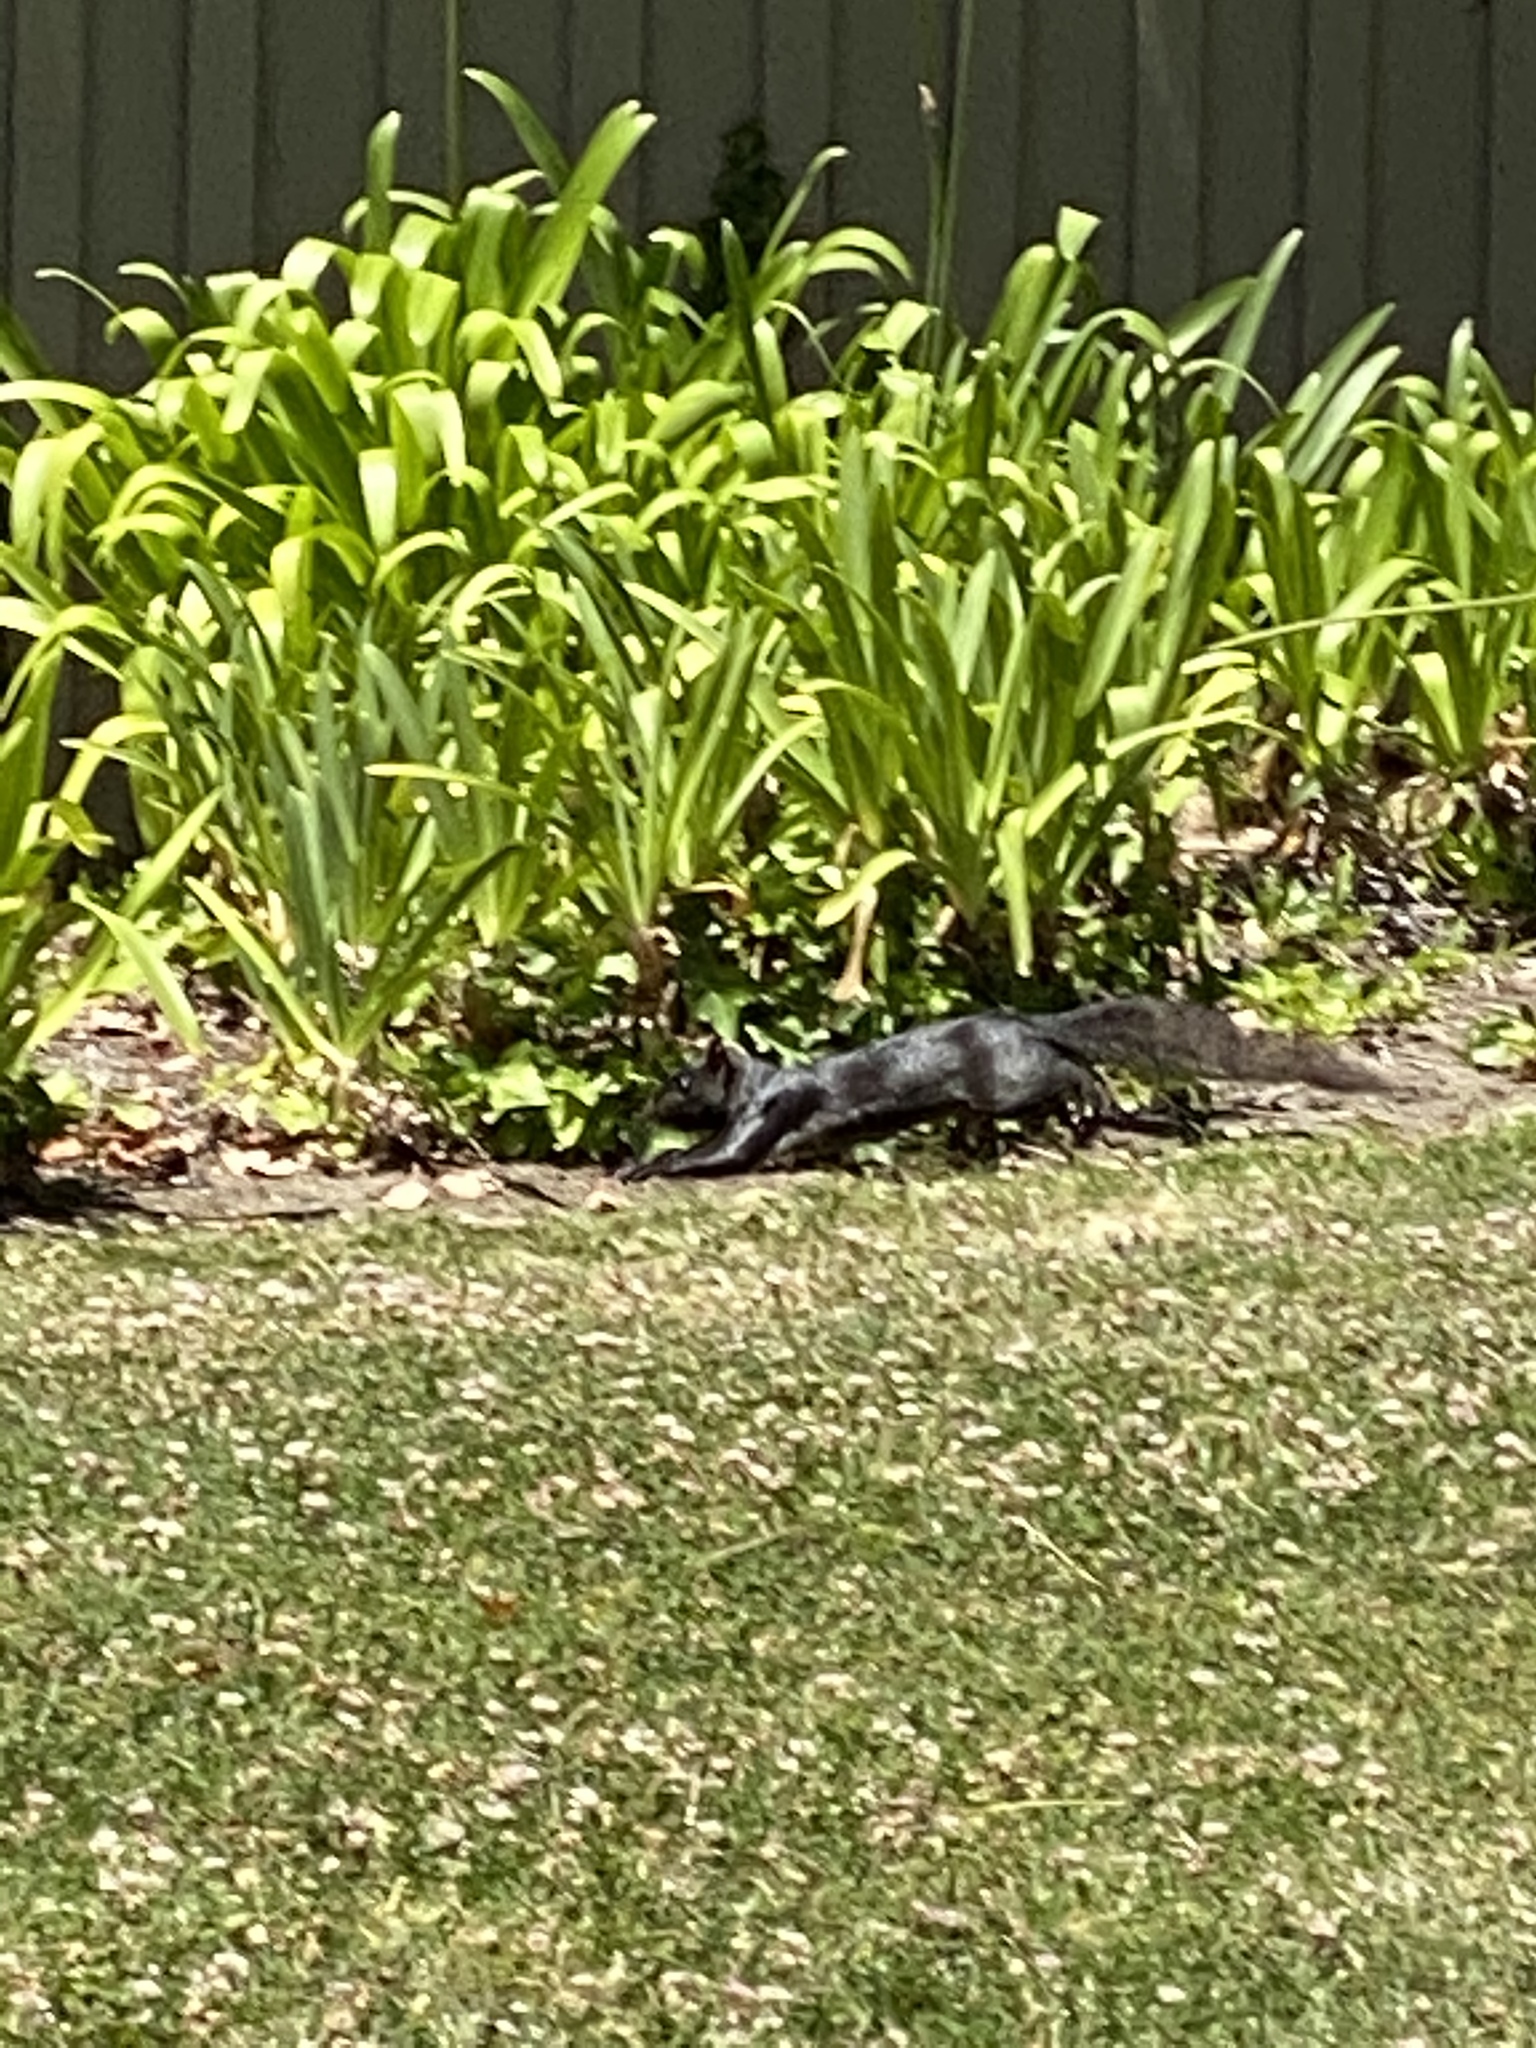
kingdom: Animalia
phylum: Chordata
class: Mammalia
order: Rodentia
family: Sciuridae
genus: Sciurus
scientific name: Sciurus carolinensis
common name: Eastern gray squirrel
